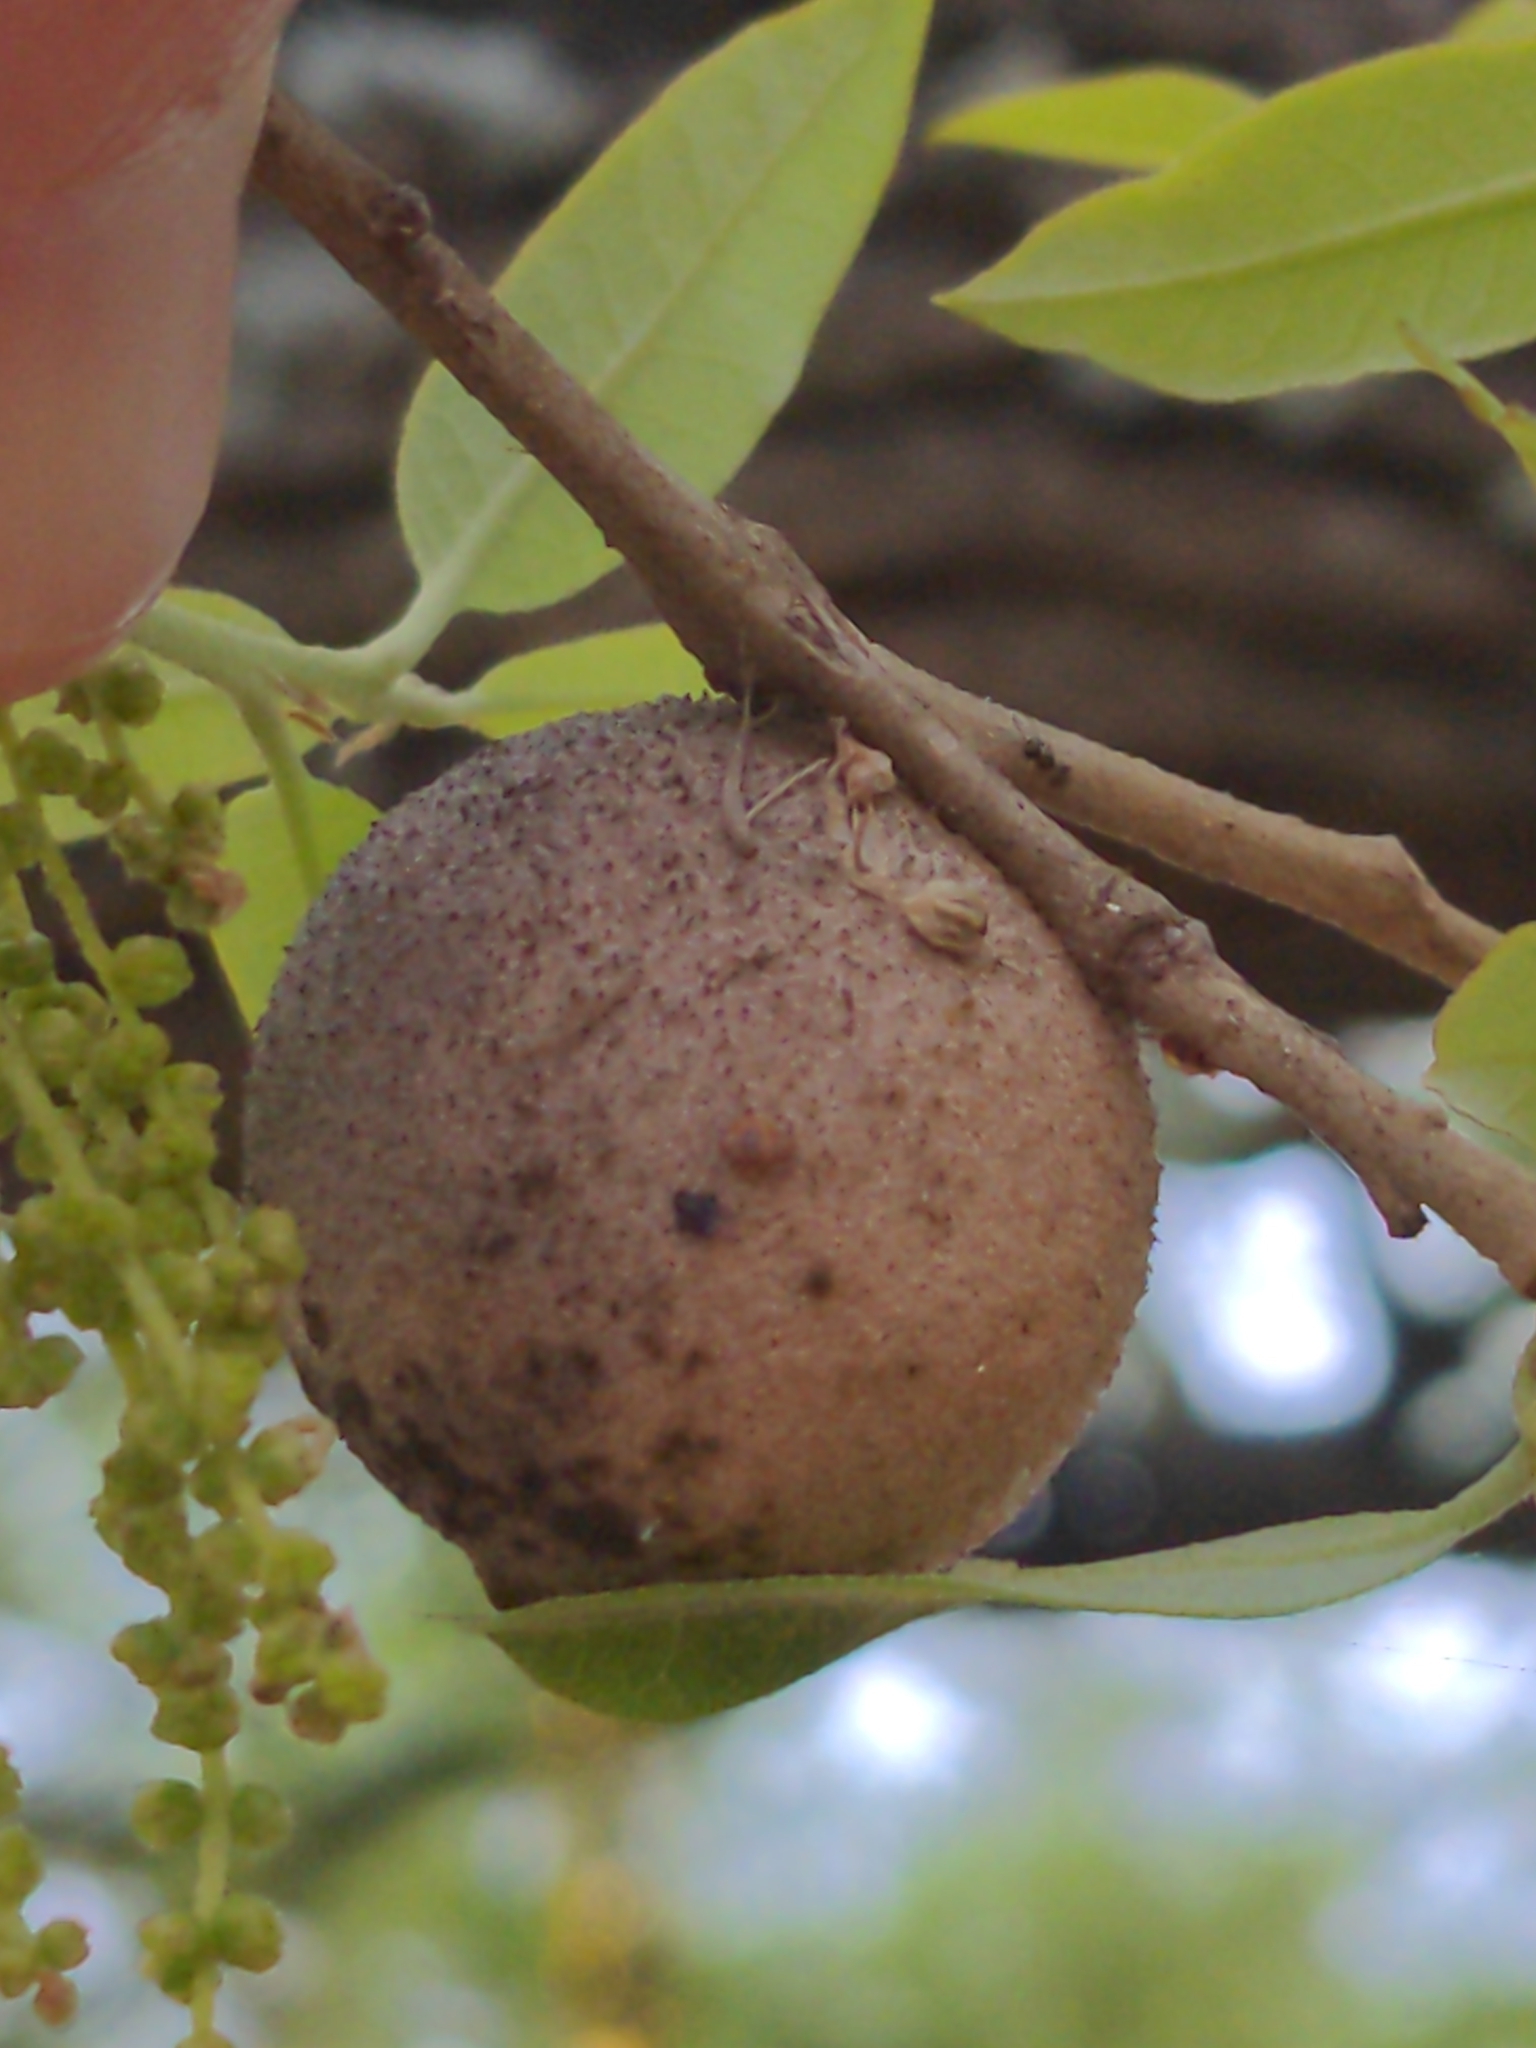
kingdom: Animalia
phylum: Arthropoda
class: Insecta
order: Hymenoptera
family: Cynipidae
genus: Disholcaspis
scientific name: Disholcaspis
